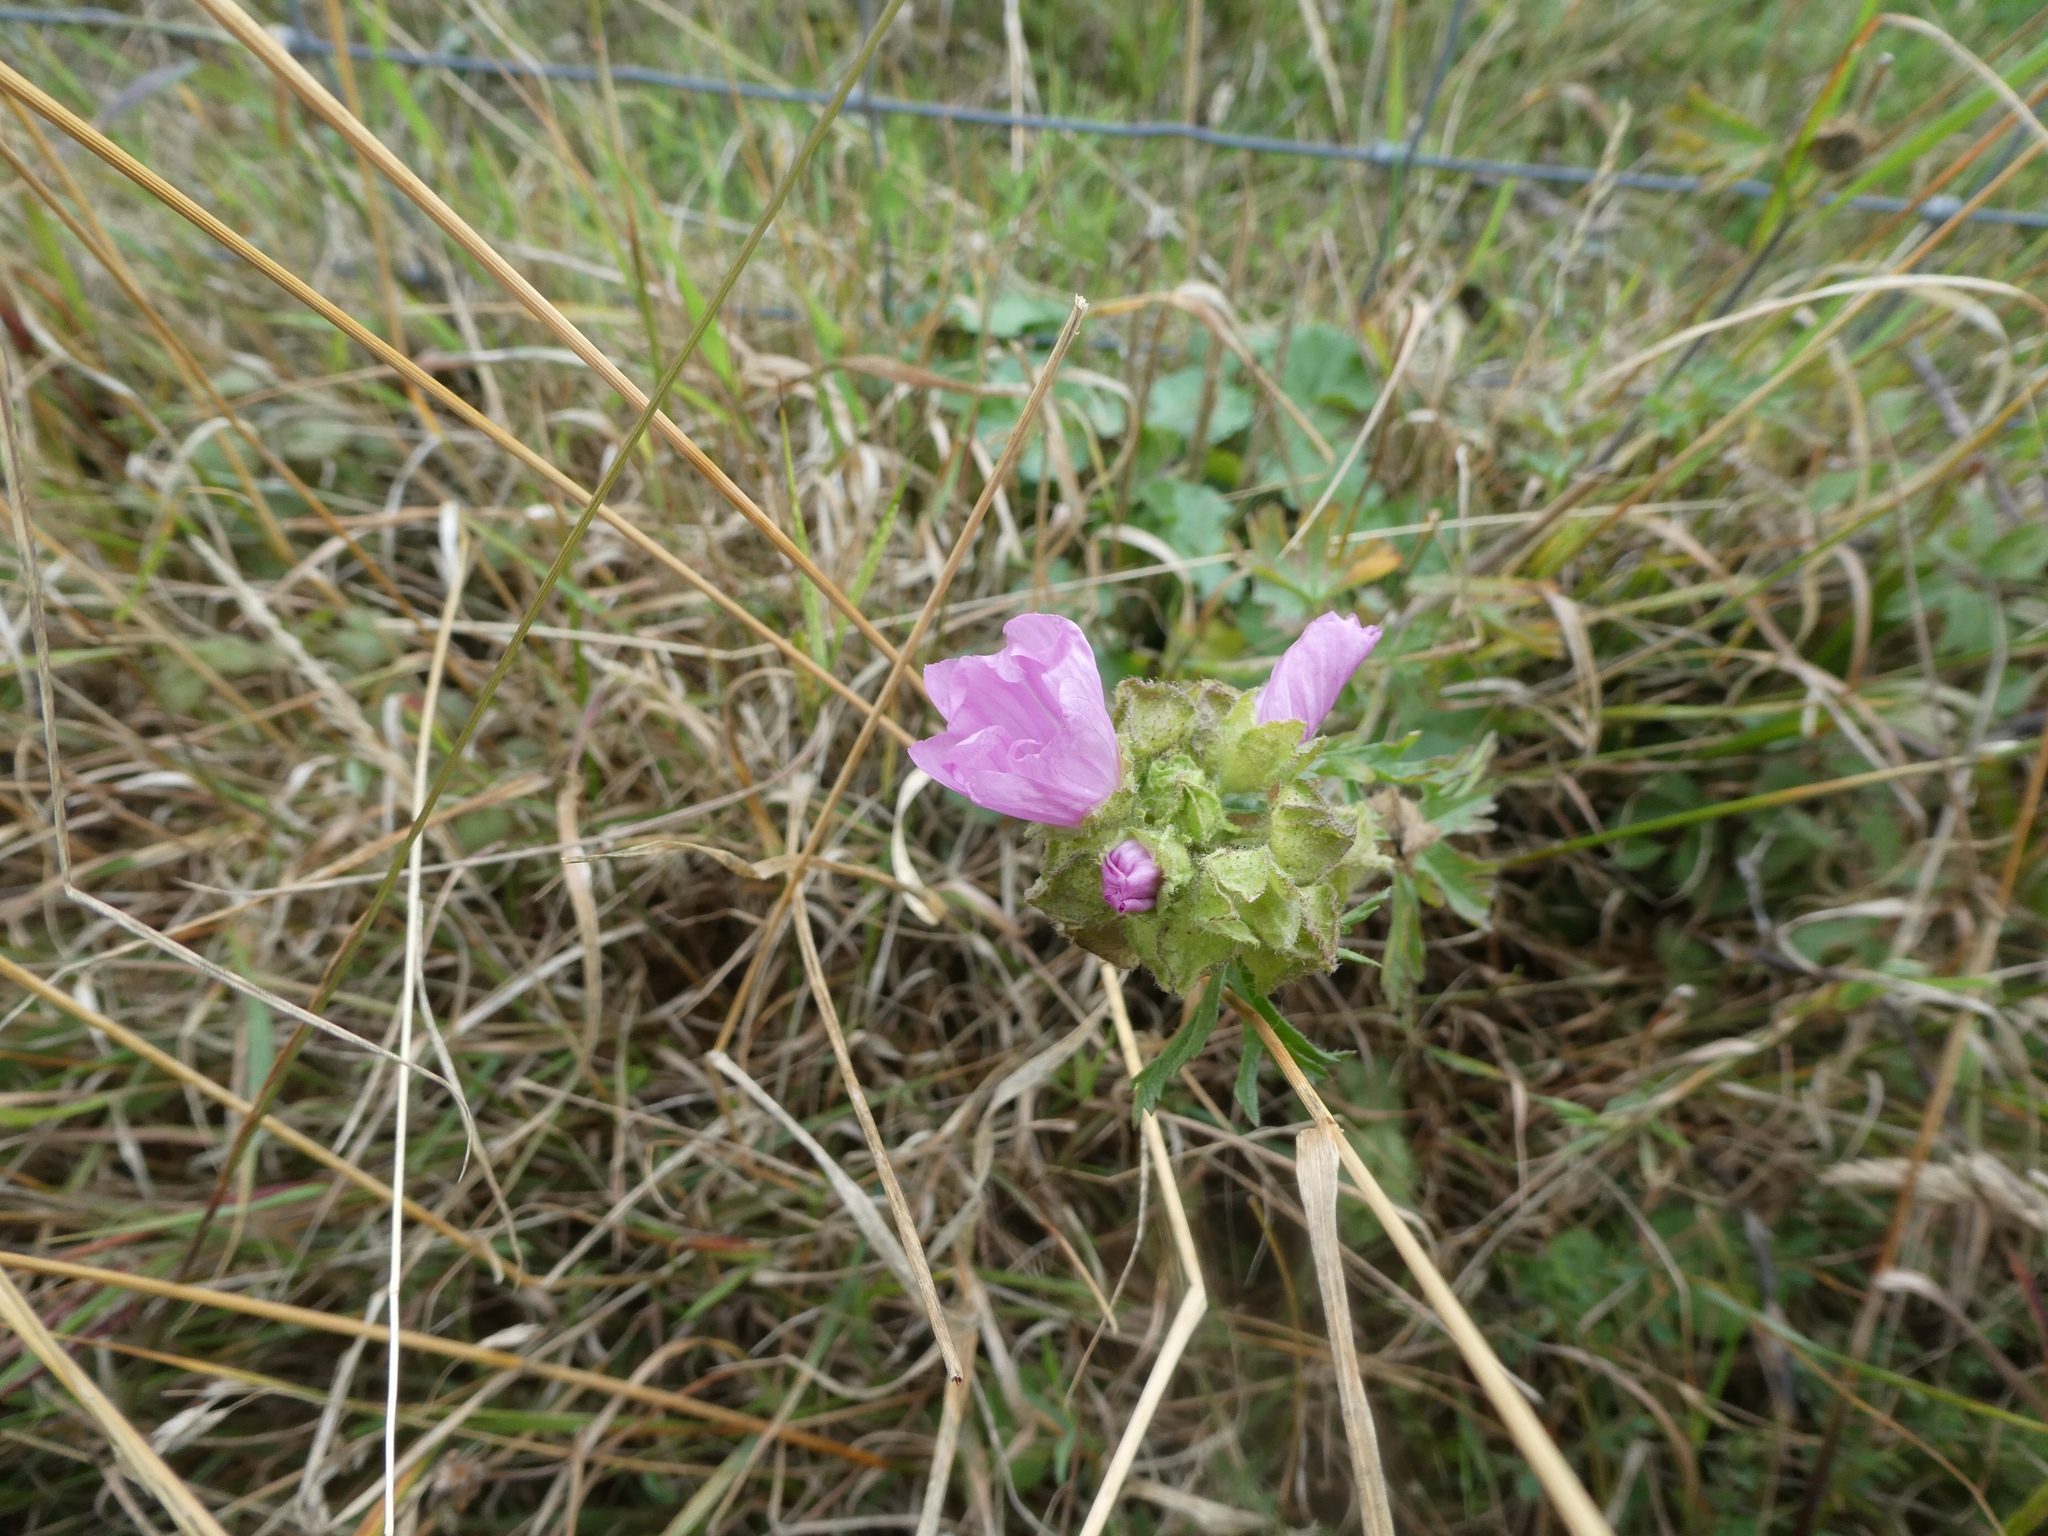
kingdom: Plantae
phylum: Tracheophyta
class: Magnoliopsida
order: Malvales
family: Malvaceae
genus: Malva
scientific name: Malva moschata
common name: Musk mallow
